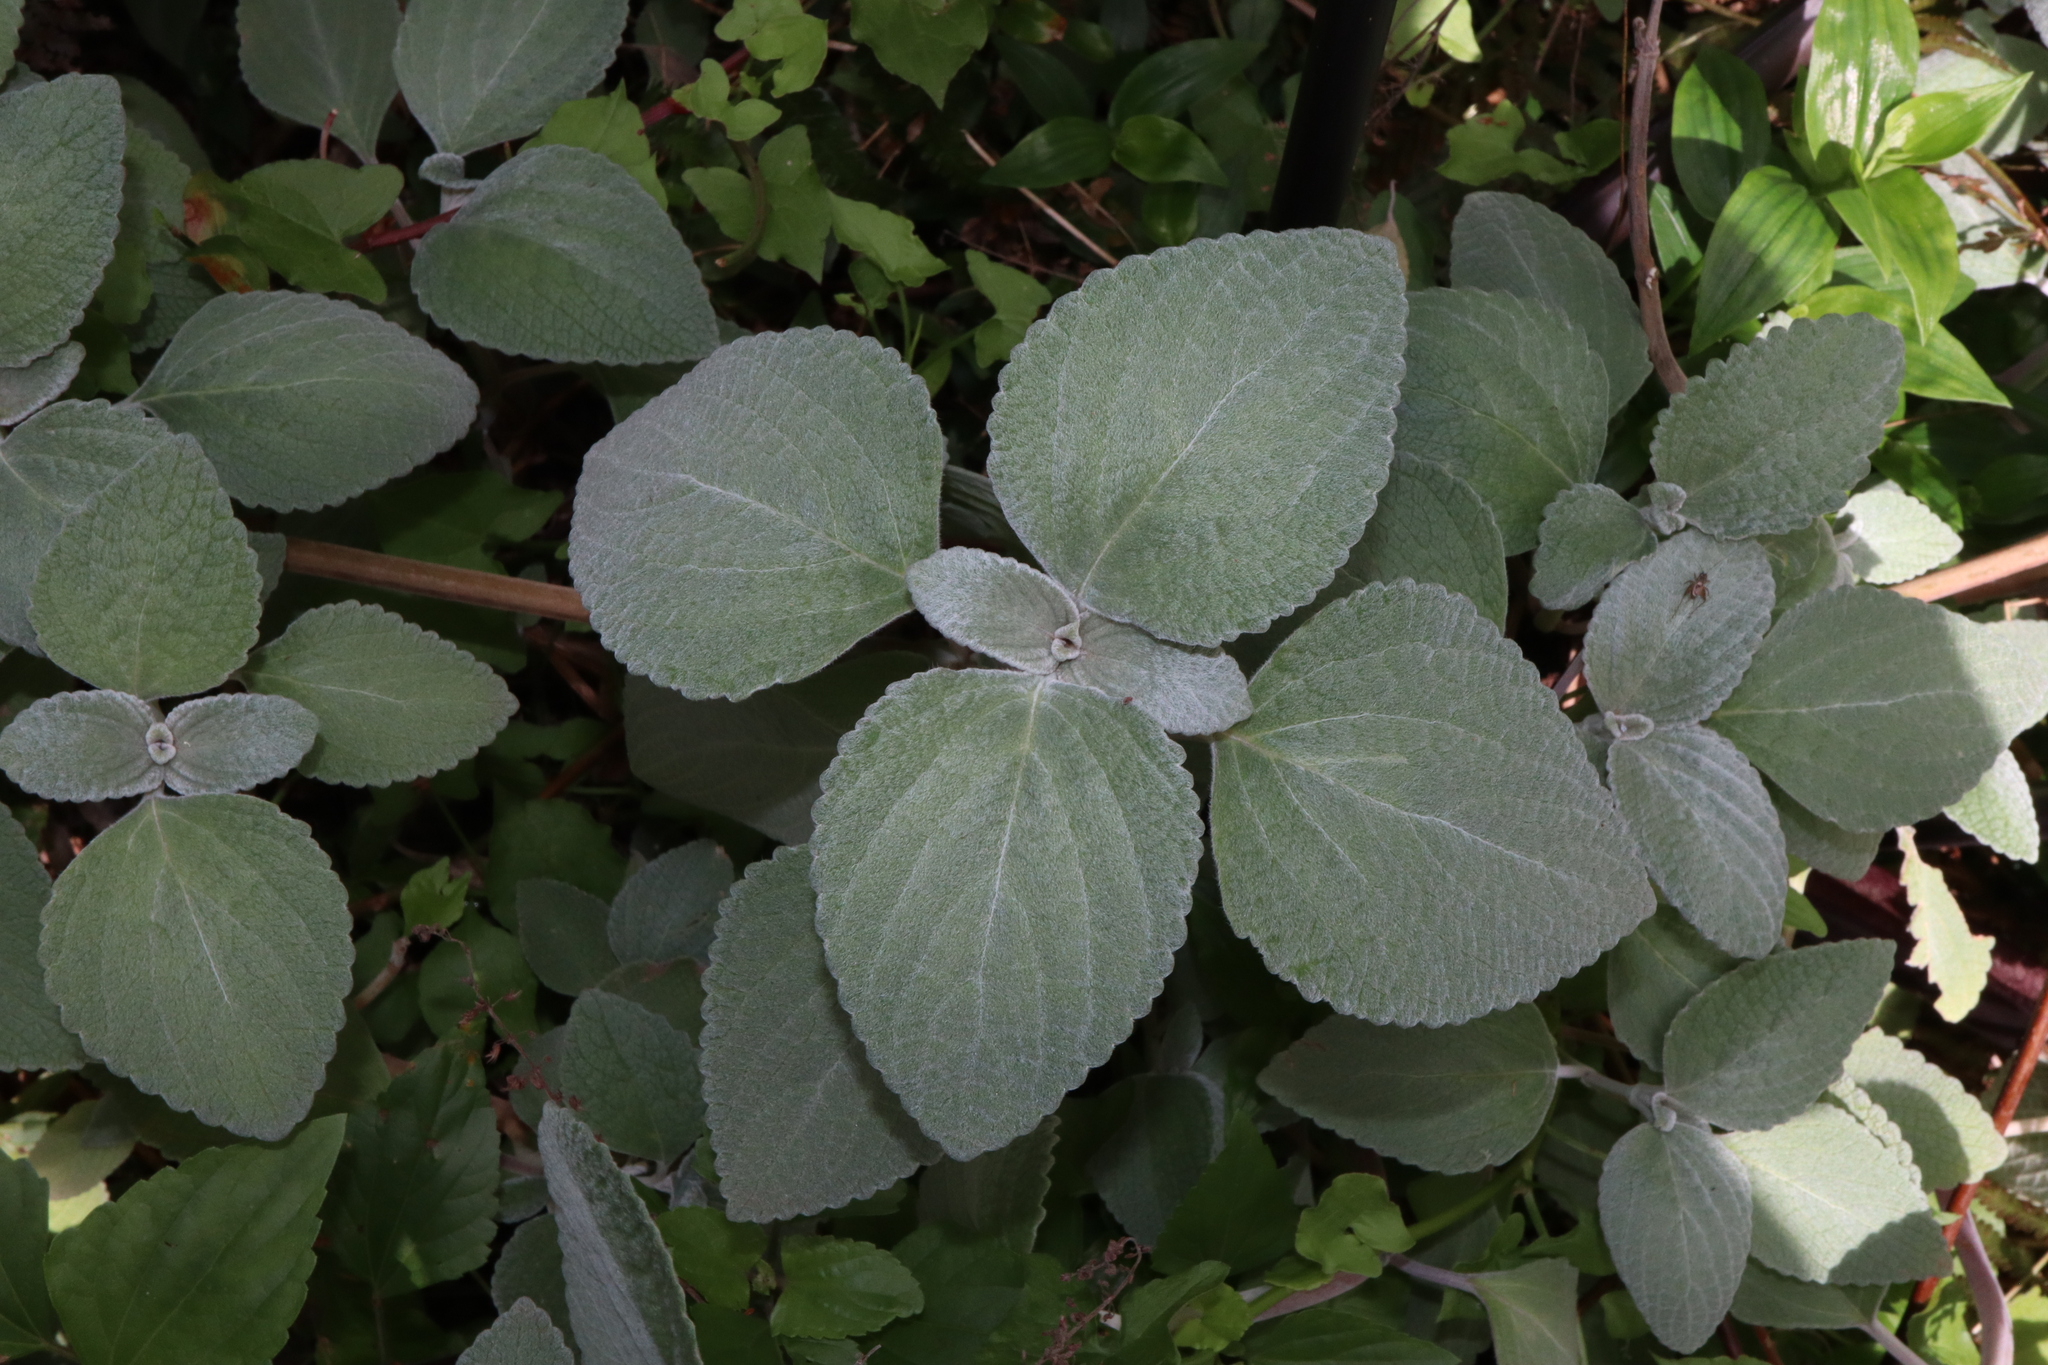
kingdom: Plantae
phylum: Tracheophyta
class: Magnoliopsida
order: Lamiales
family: Lamiaceae
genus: Coleus
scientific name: Coleus argentatus
